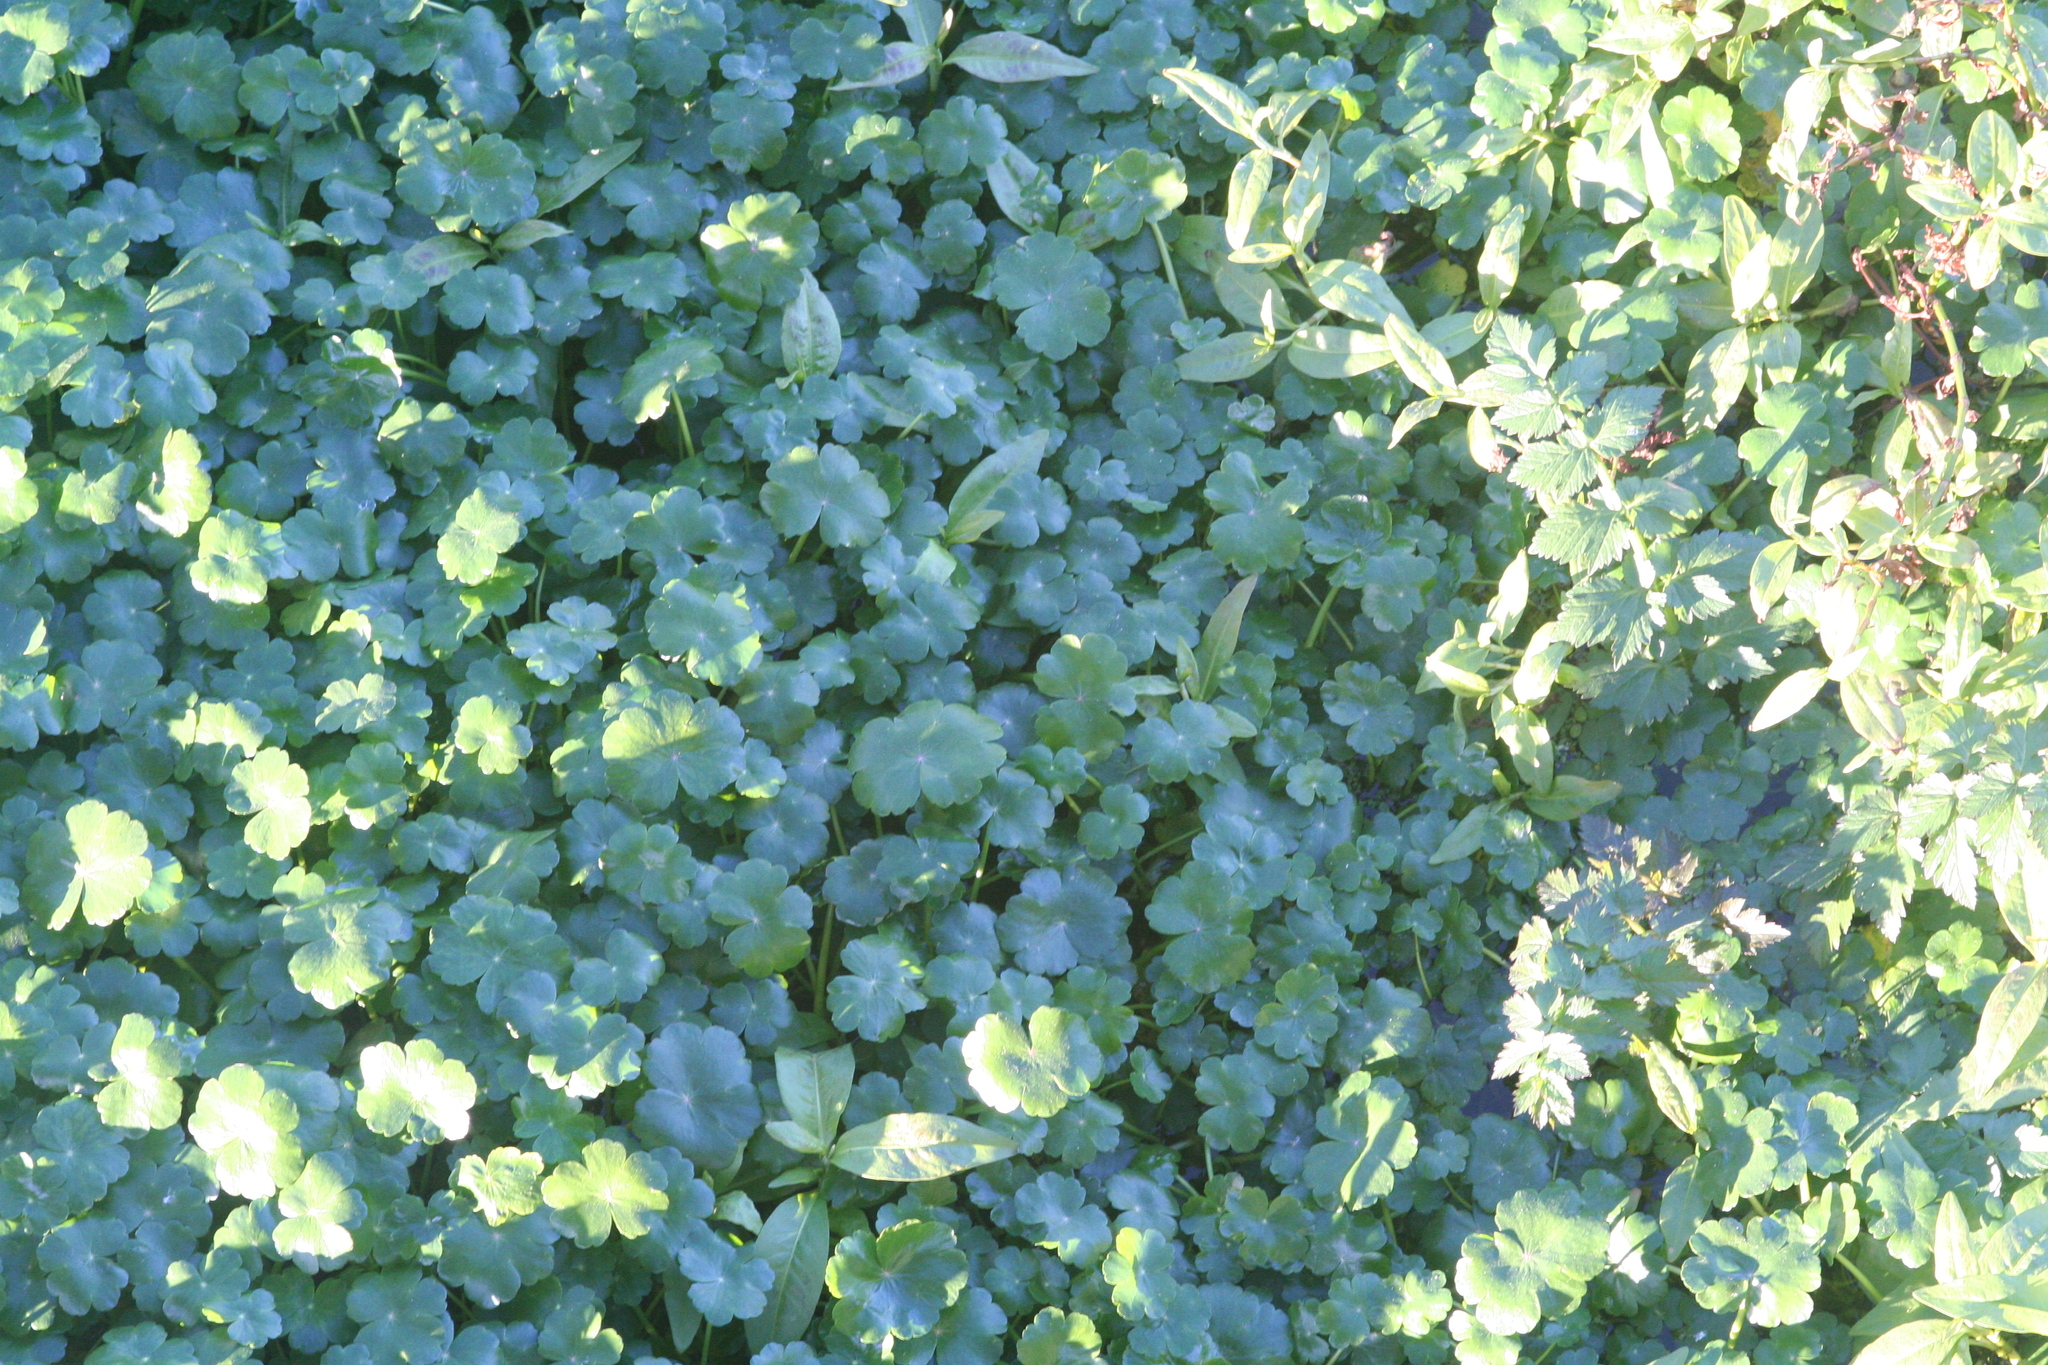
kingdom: Plantae
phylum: Tracheophyta
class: Magnoliopsida
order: Apiales
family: Araliaceae
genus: Hydrocotyle
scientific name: Hydrocotyle ranunculoides
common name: Floating pennywort
